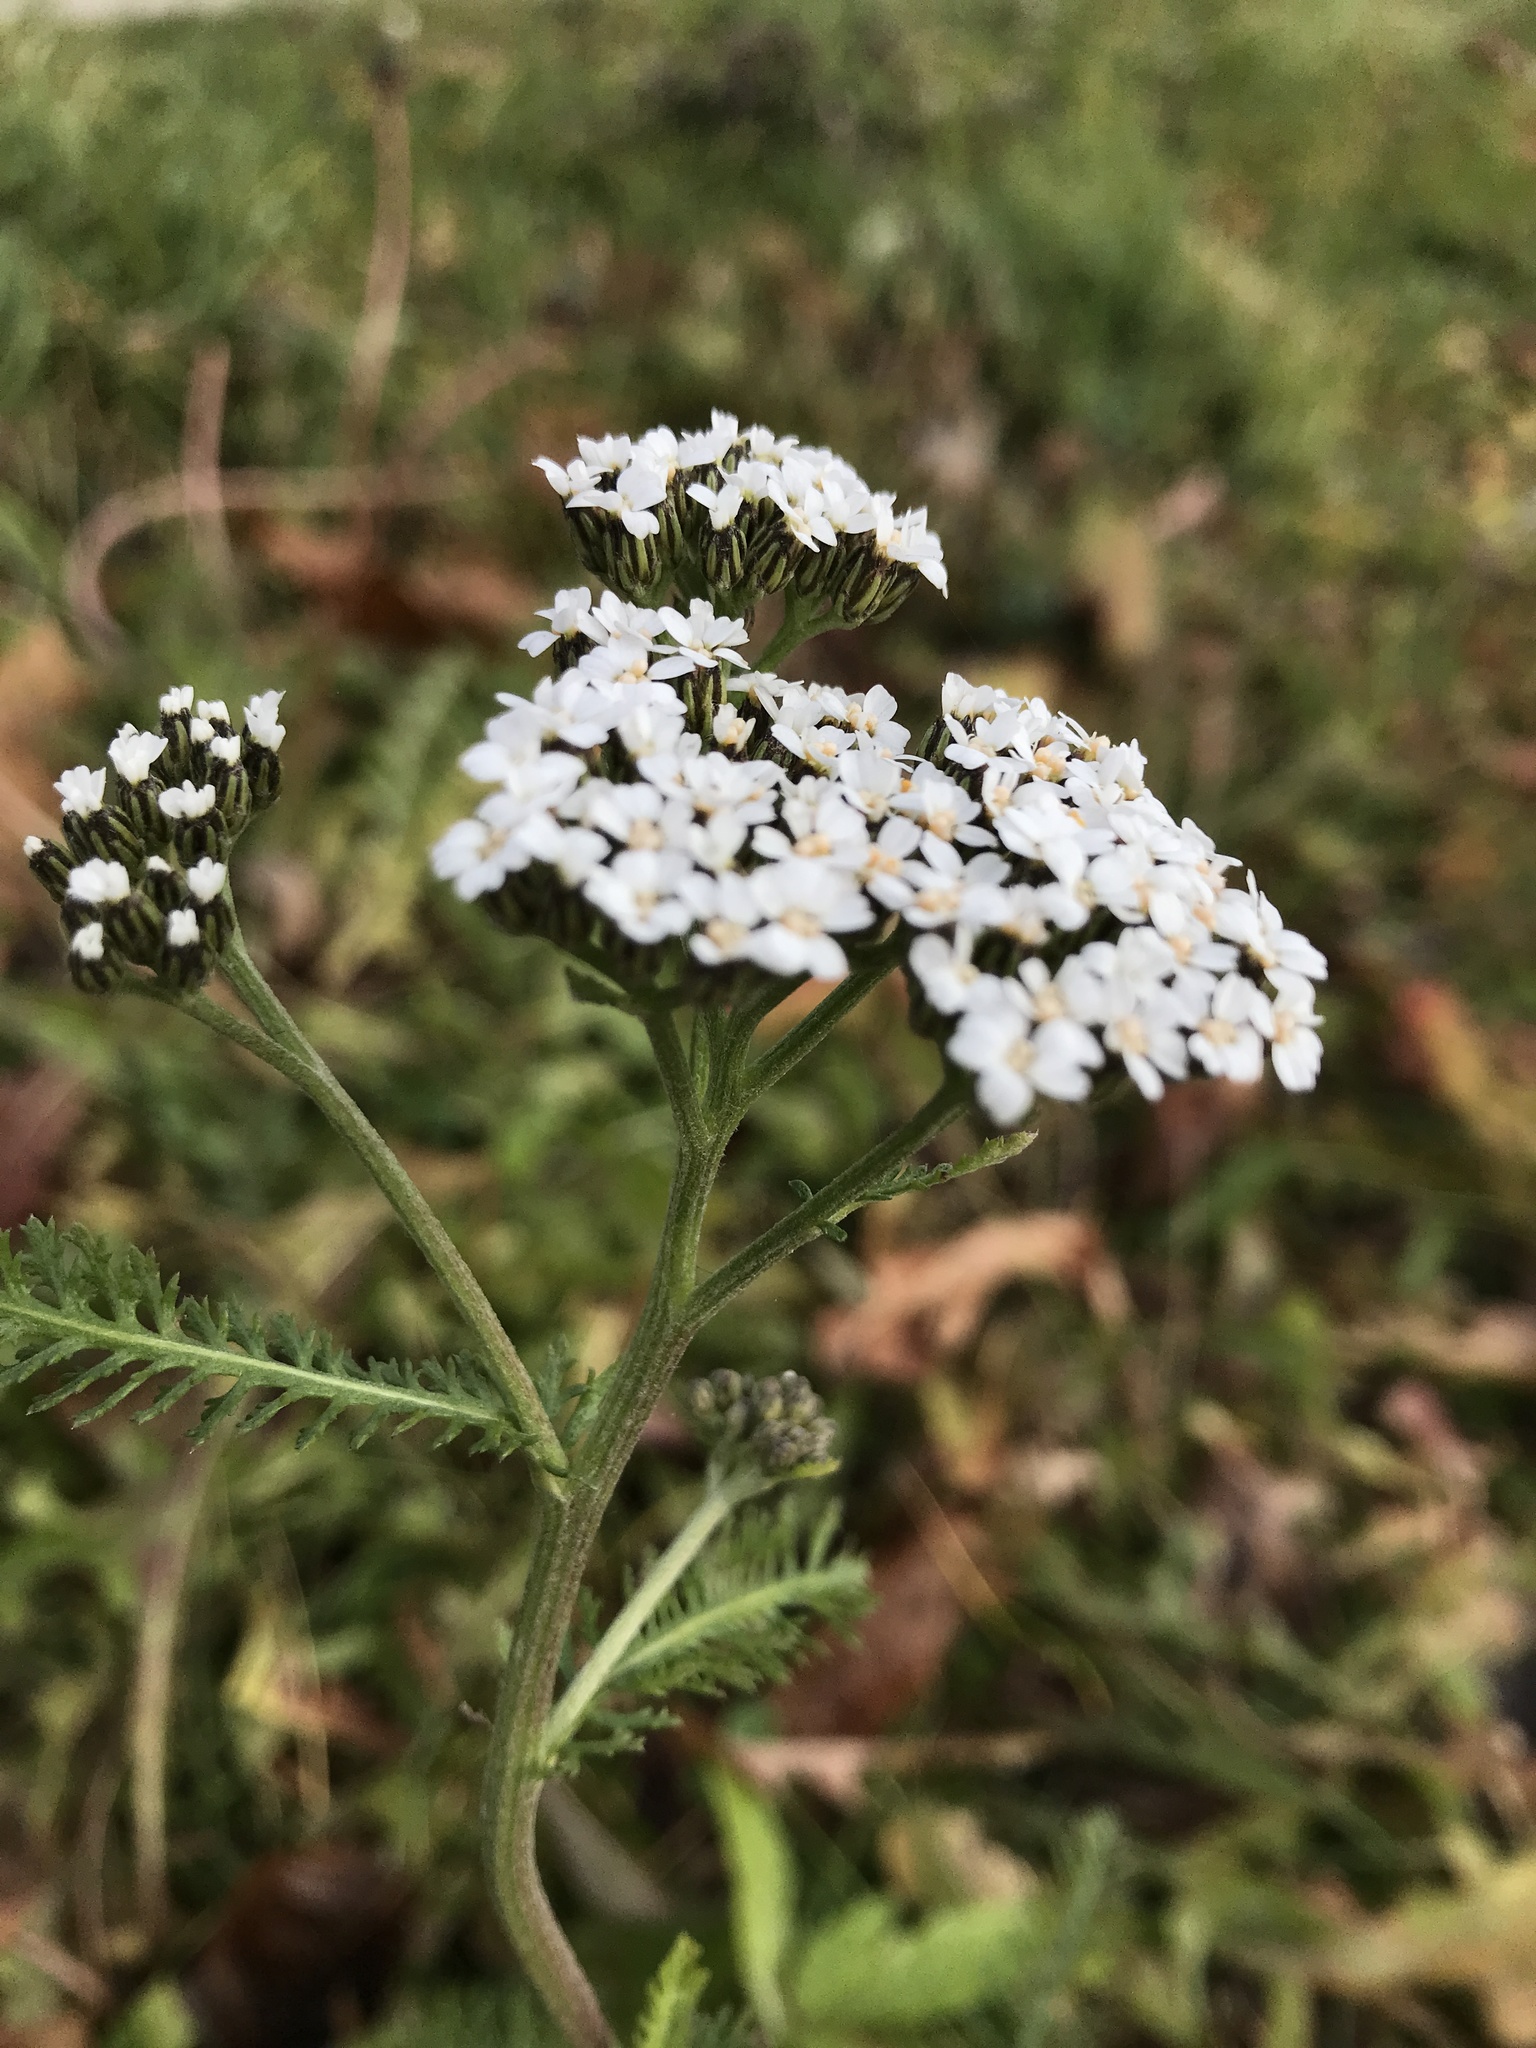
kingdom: Plantae
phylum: Tracheophyta
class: Magnoliopsida
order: Asterales
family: Asteraceae
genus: Achillea
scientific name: Achillea millefolium
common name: Yarrow
